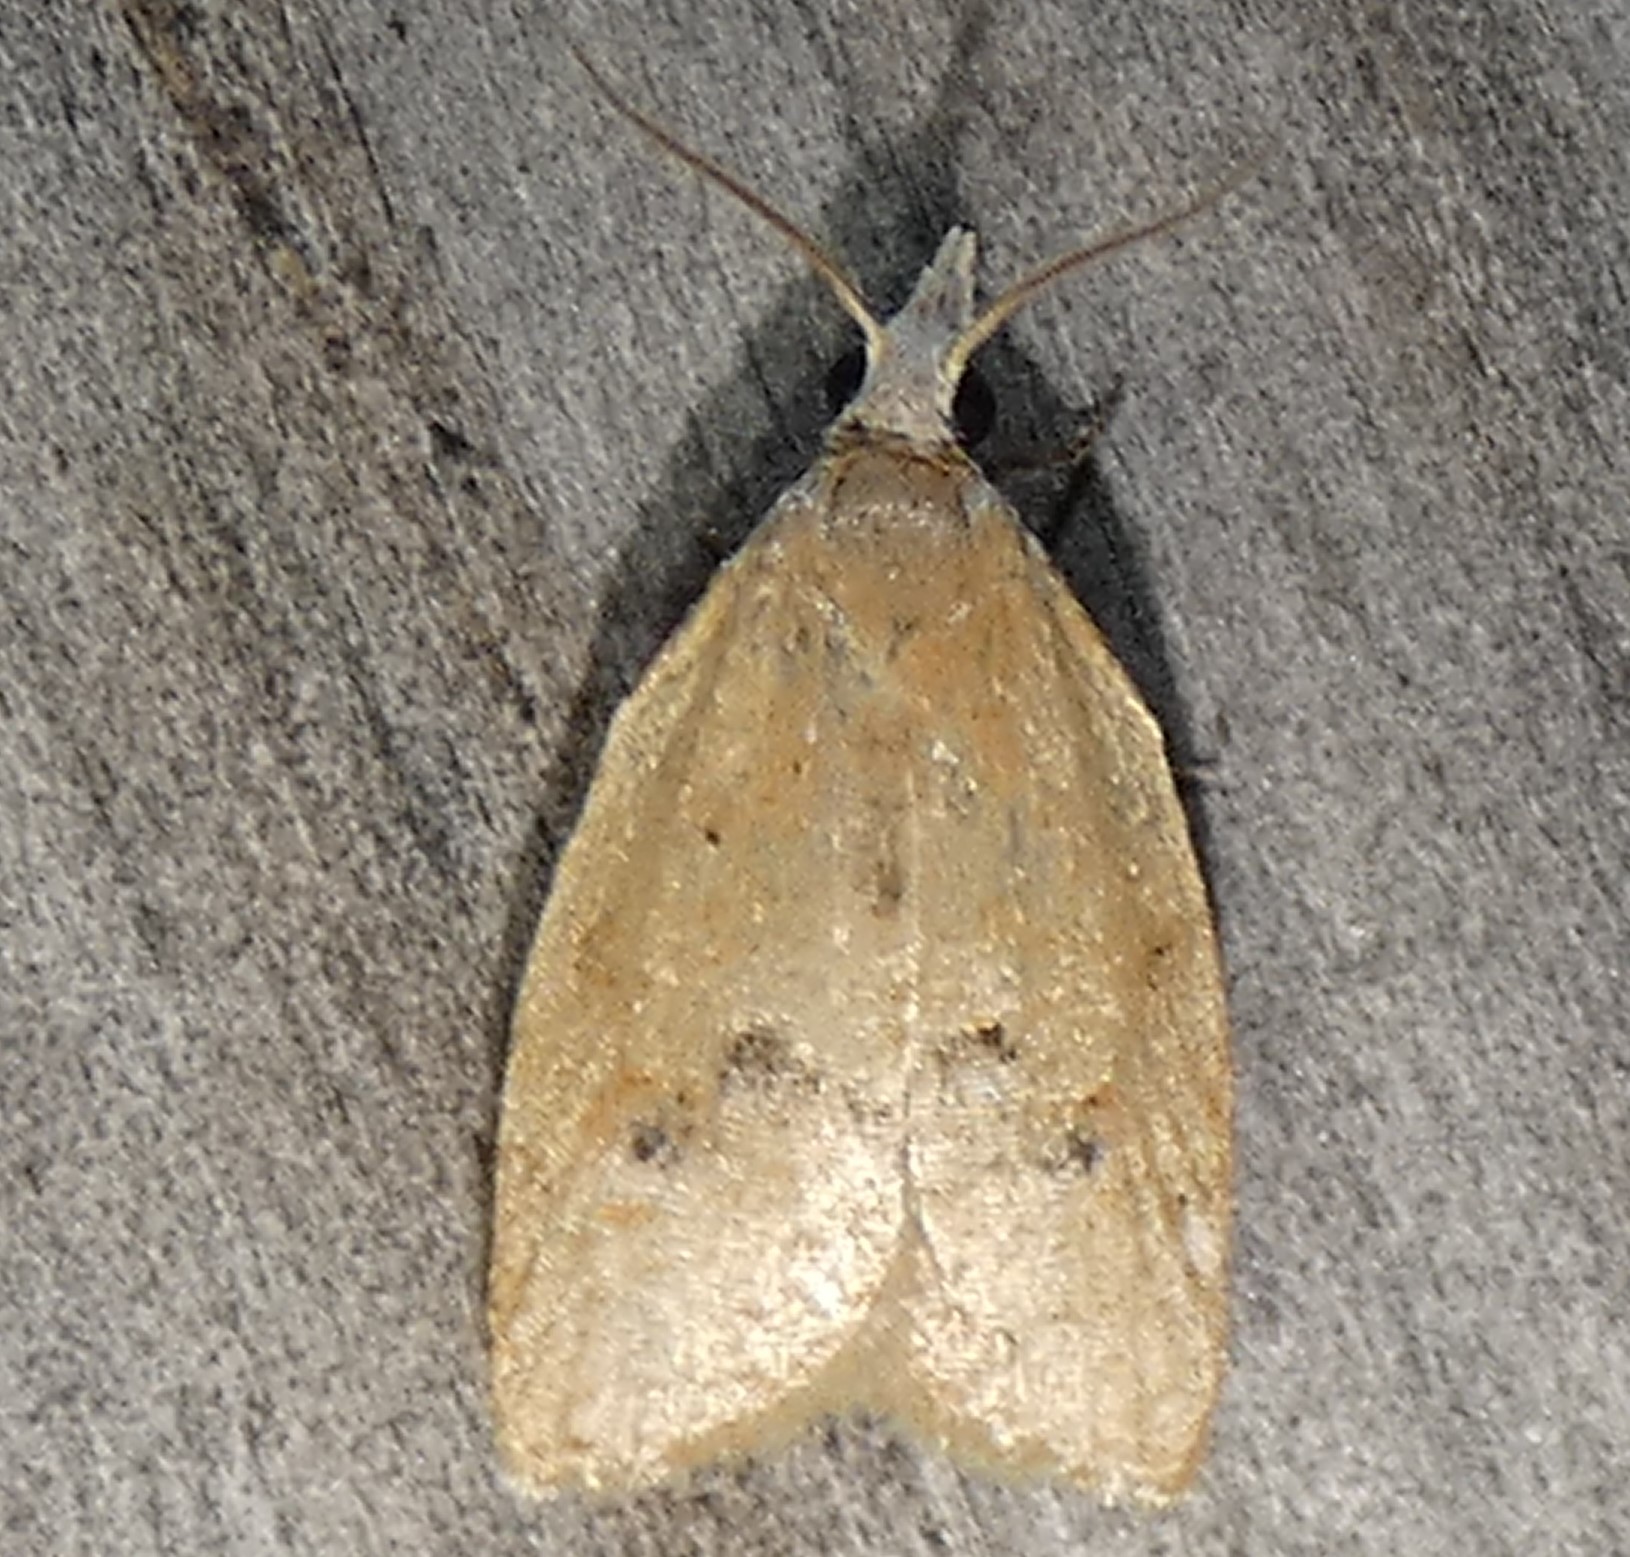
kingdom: Animalia
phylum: Arthropoda
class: Insecta
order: Lepidoptera
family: Tortricidae
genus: Sparganothoides
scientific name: Sparganothoides lentiginosana
